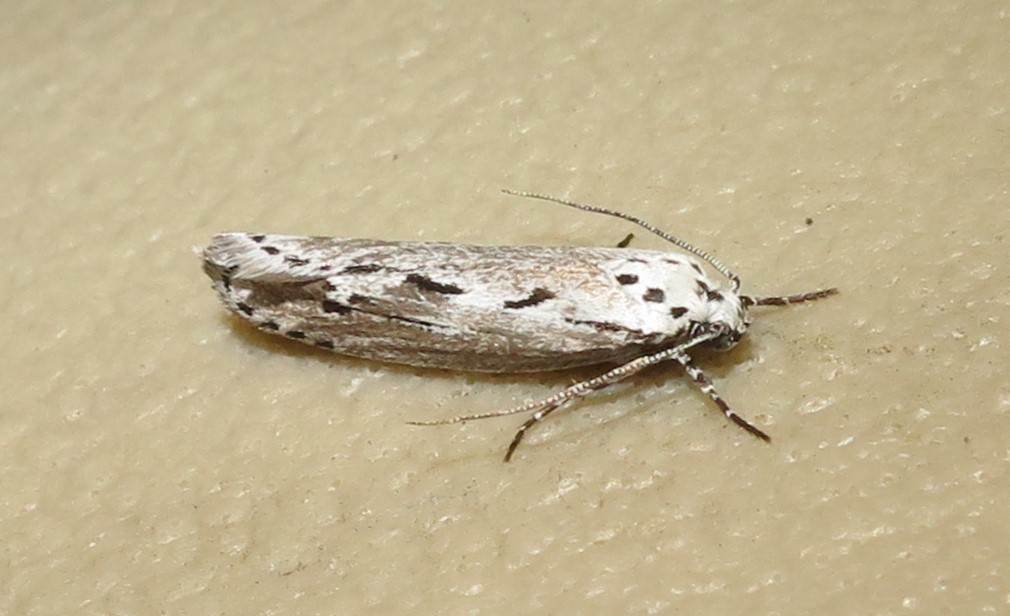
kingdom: Animalia
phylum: Arthropoda
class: Insecta
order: Lepidoptera
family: Ethmiidae
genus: Ethmia
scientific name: Ethmia discostrigella
